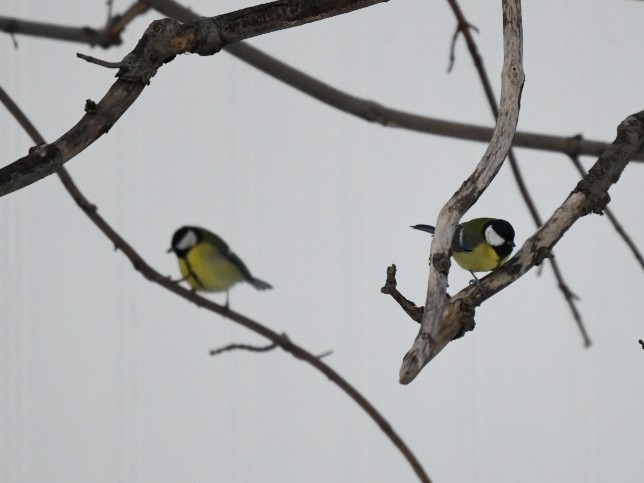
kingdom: Animalia
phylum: Chordata
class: Aves
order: Passeriformes
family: Paridae
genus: Parus
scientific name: Parus major
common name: Great tit
